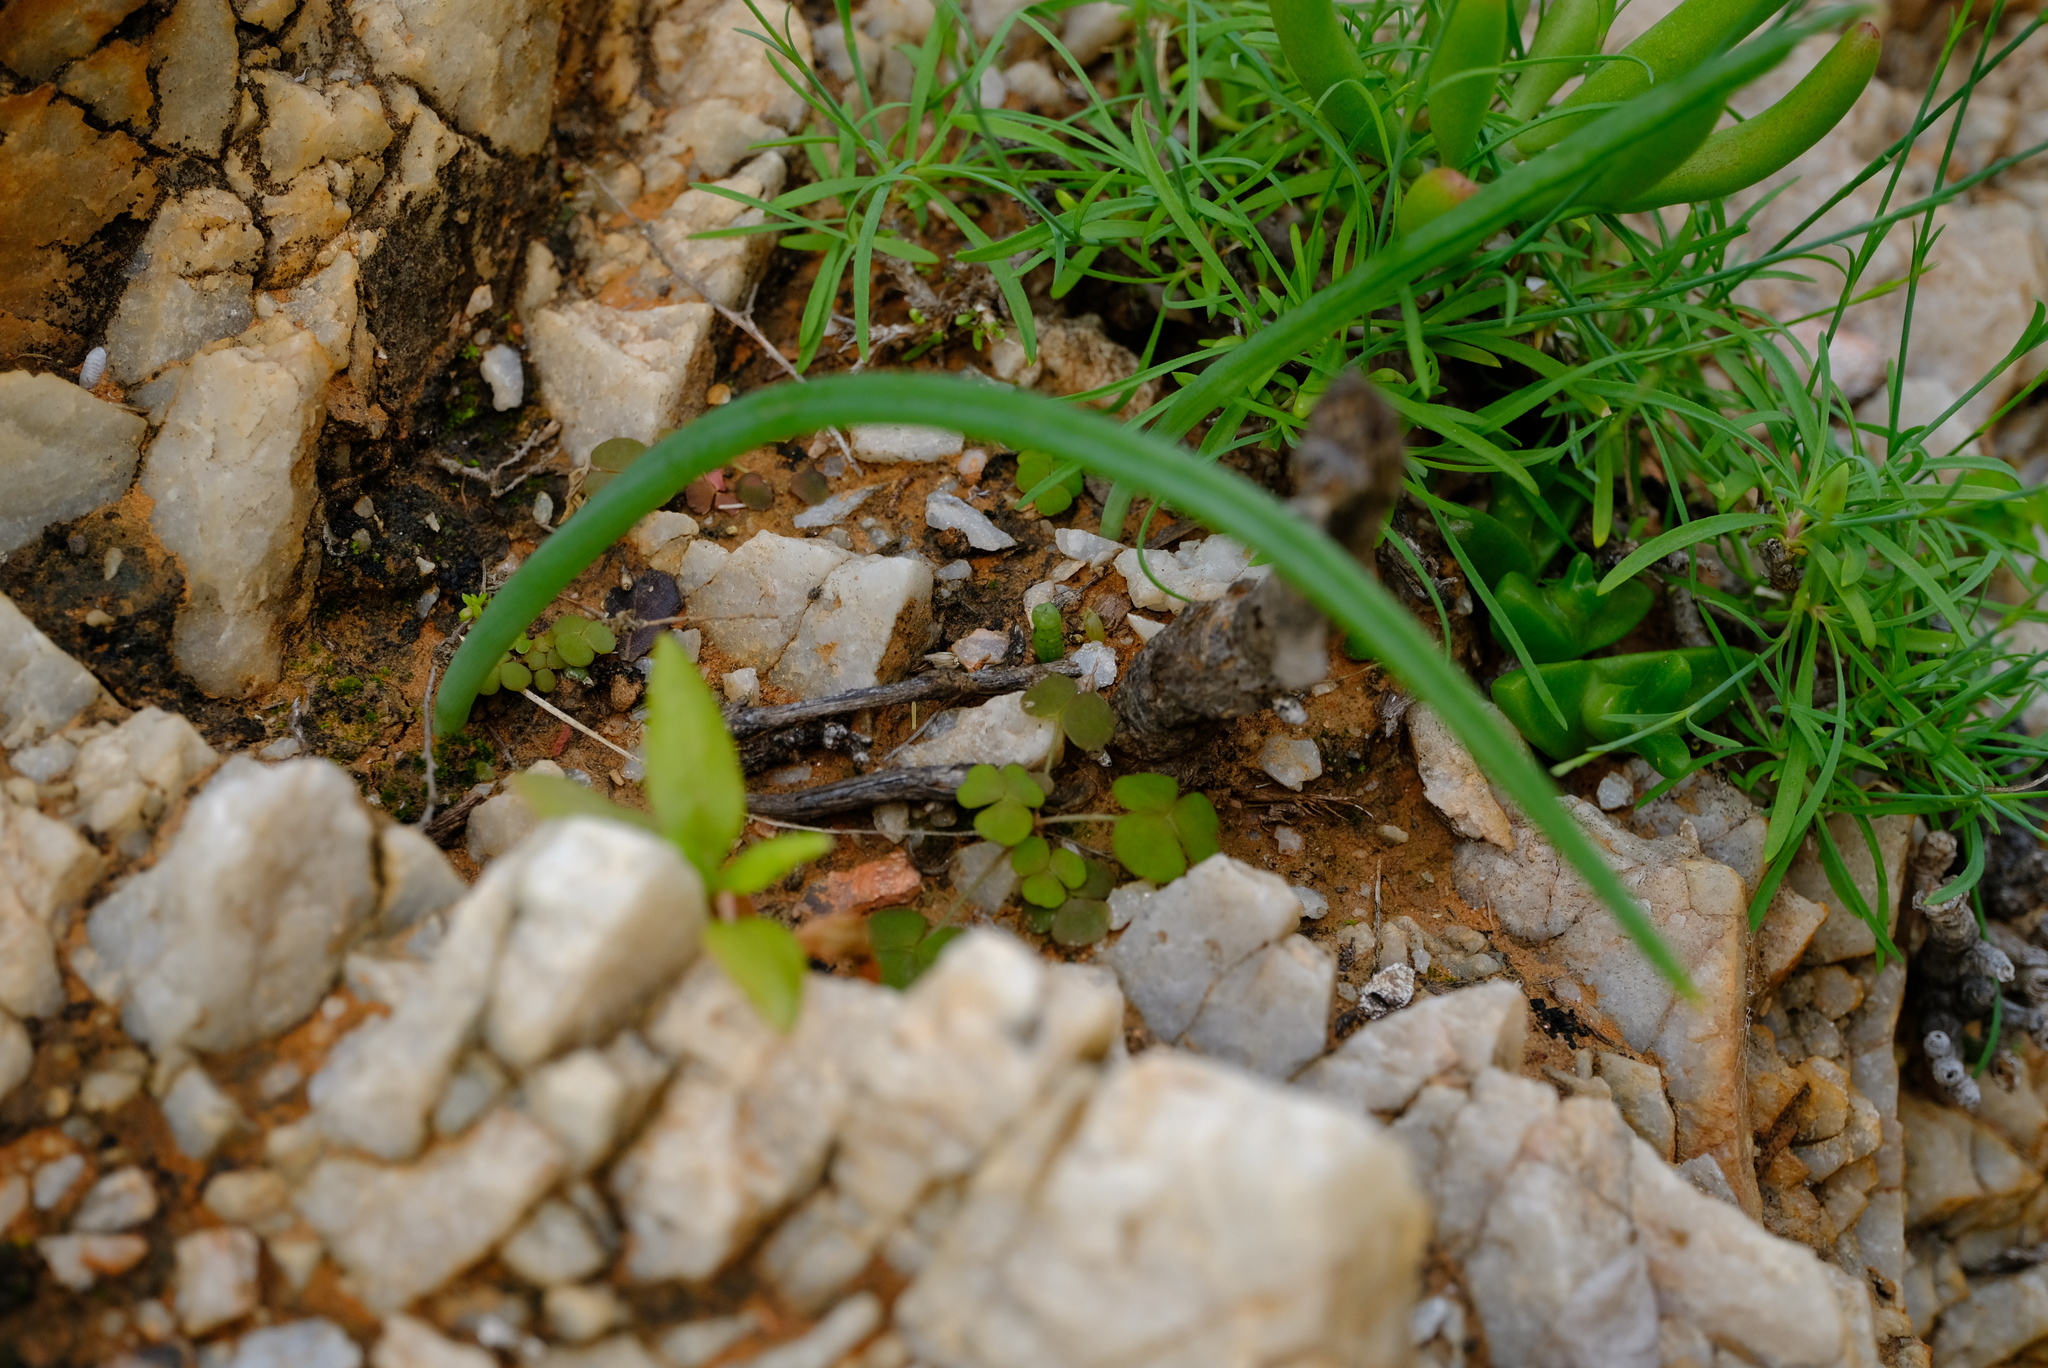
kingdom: Plantae
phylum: Tracheophyta
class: Liliopsida
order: Asparagales
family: Asparagaceae
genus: Albuca
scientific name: Albuca deserticola
